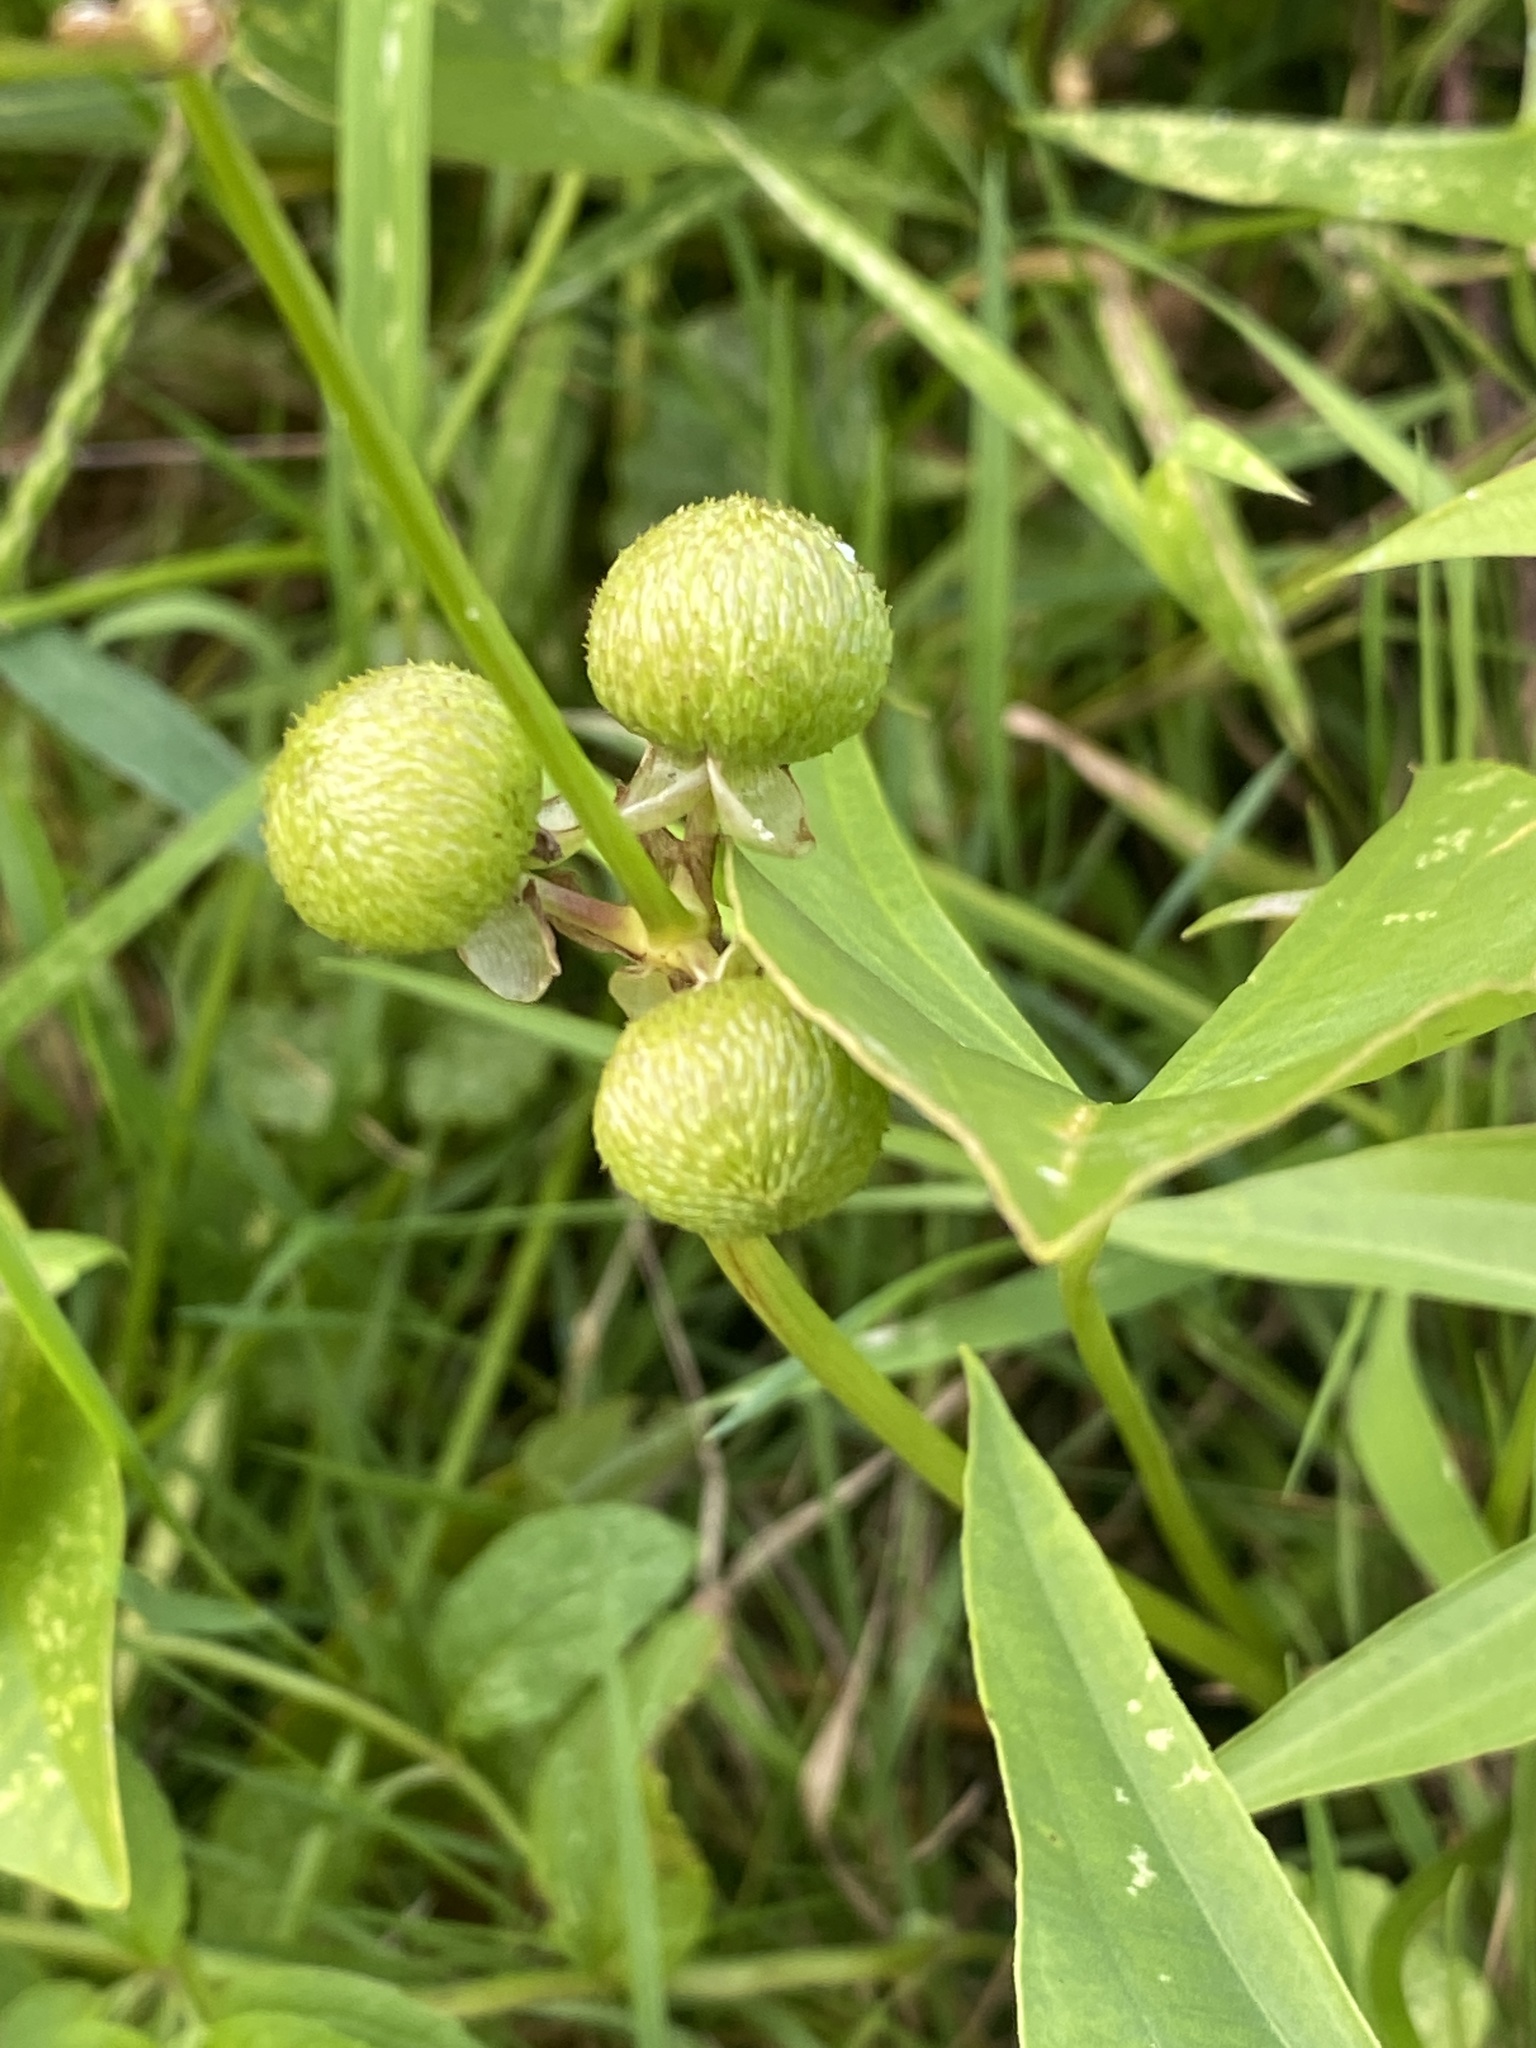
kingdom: Plantae
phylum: Tracheophyta
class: Liliopsida
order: Alismatales
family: Alismataceae
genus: Sagittaria
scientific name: Sagittaria latifolia
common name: Duck-potato
